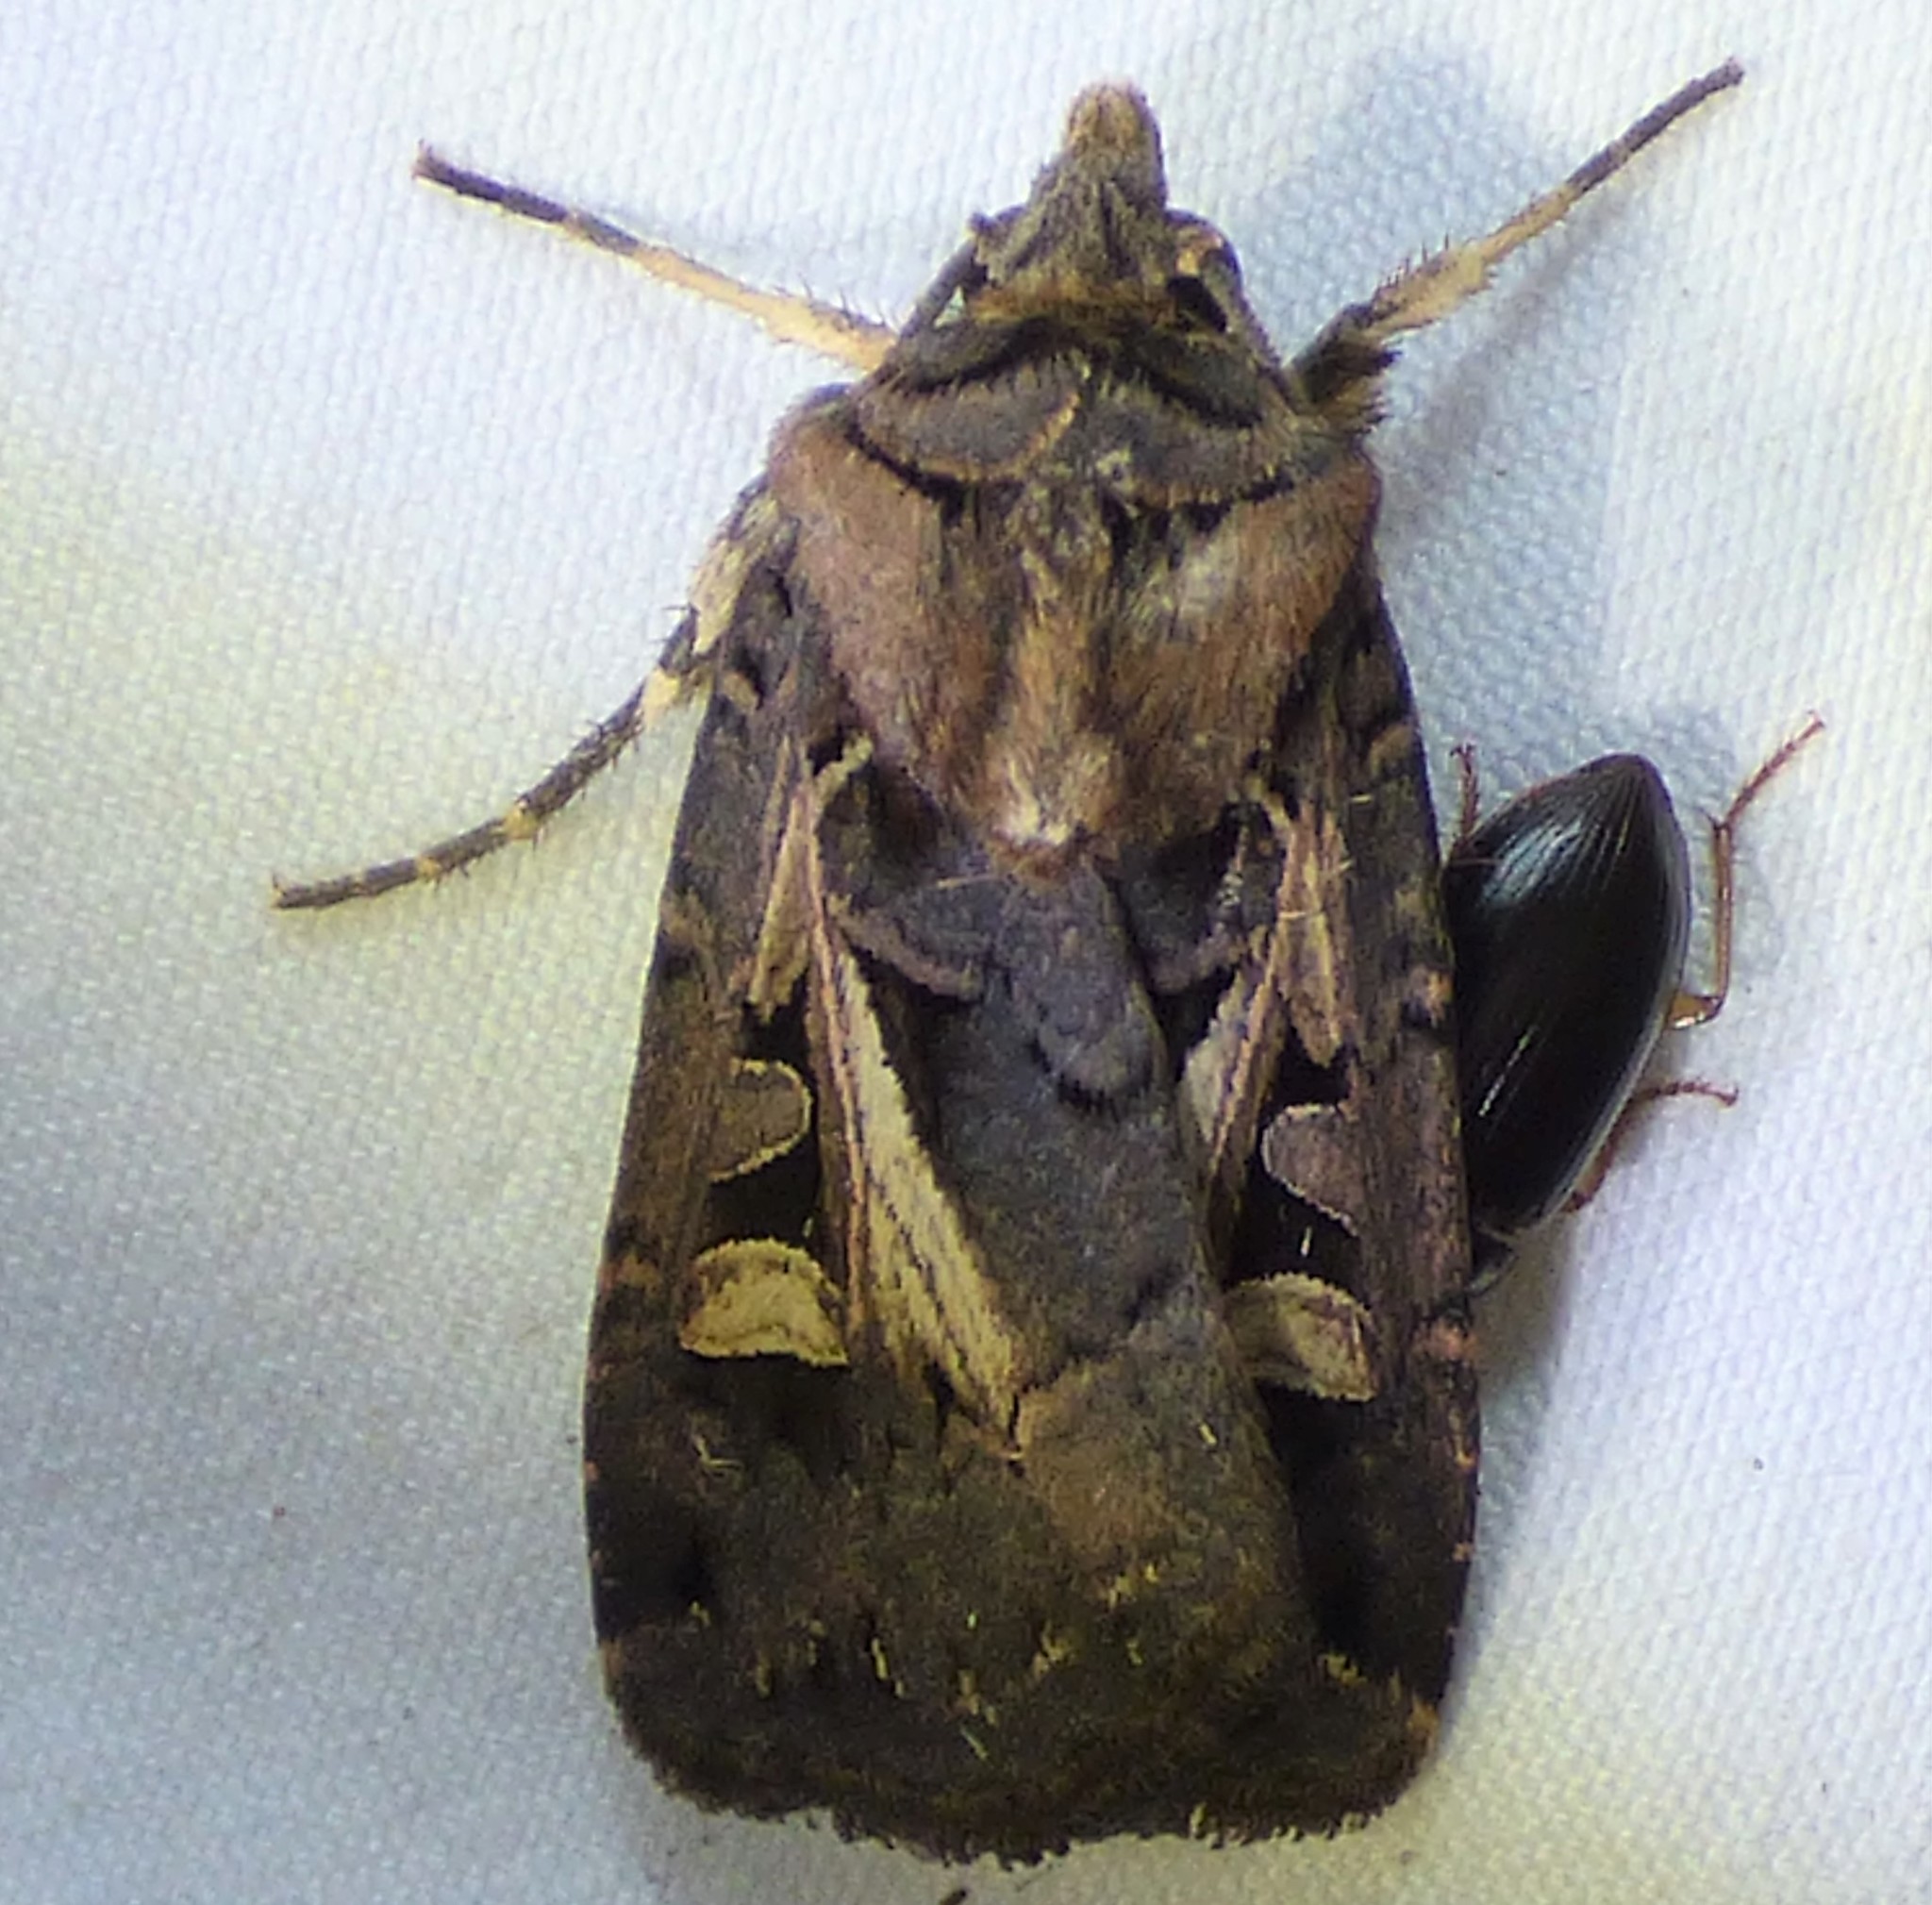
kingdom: Animalia
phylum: Arthropoda
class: Insecta
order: Lepidoptera
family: Noctuidae
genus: Feltia
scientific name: Feltia herilis
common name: Master's dart
